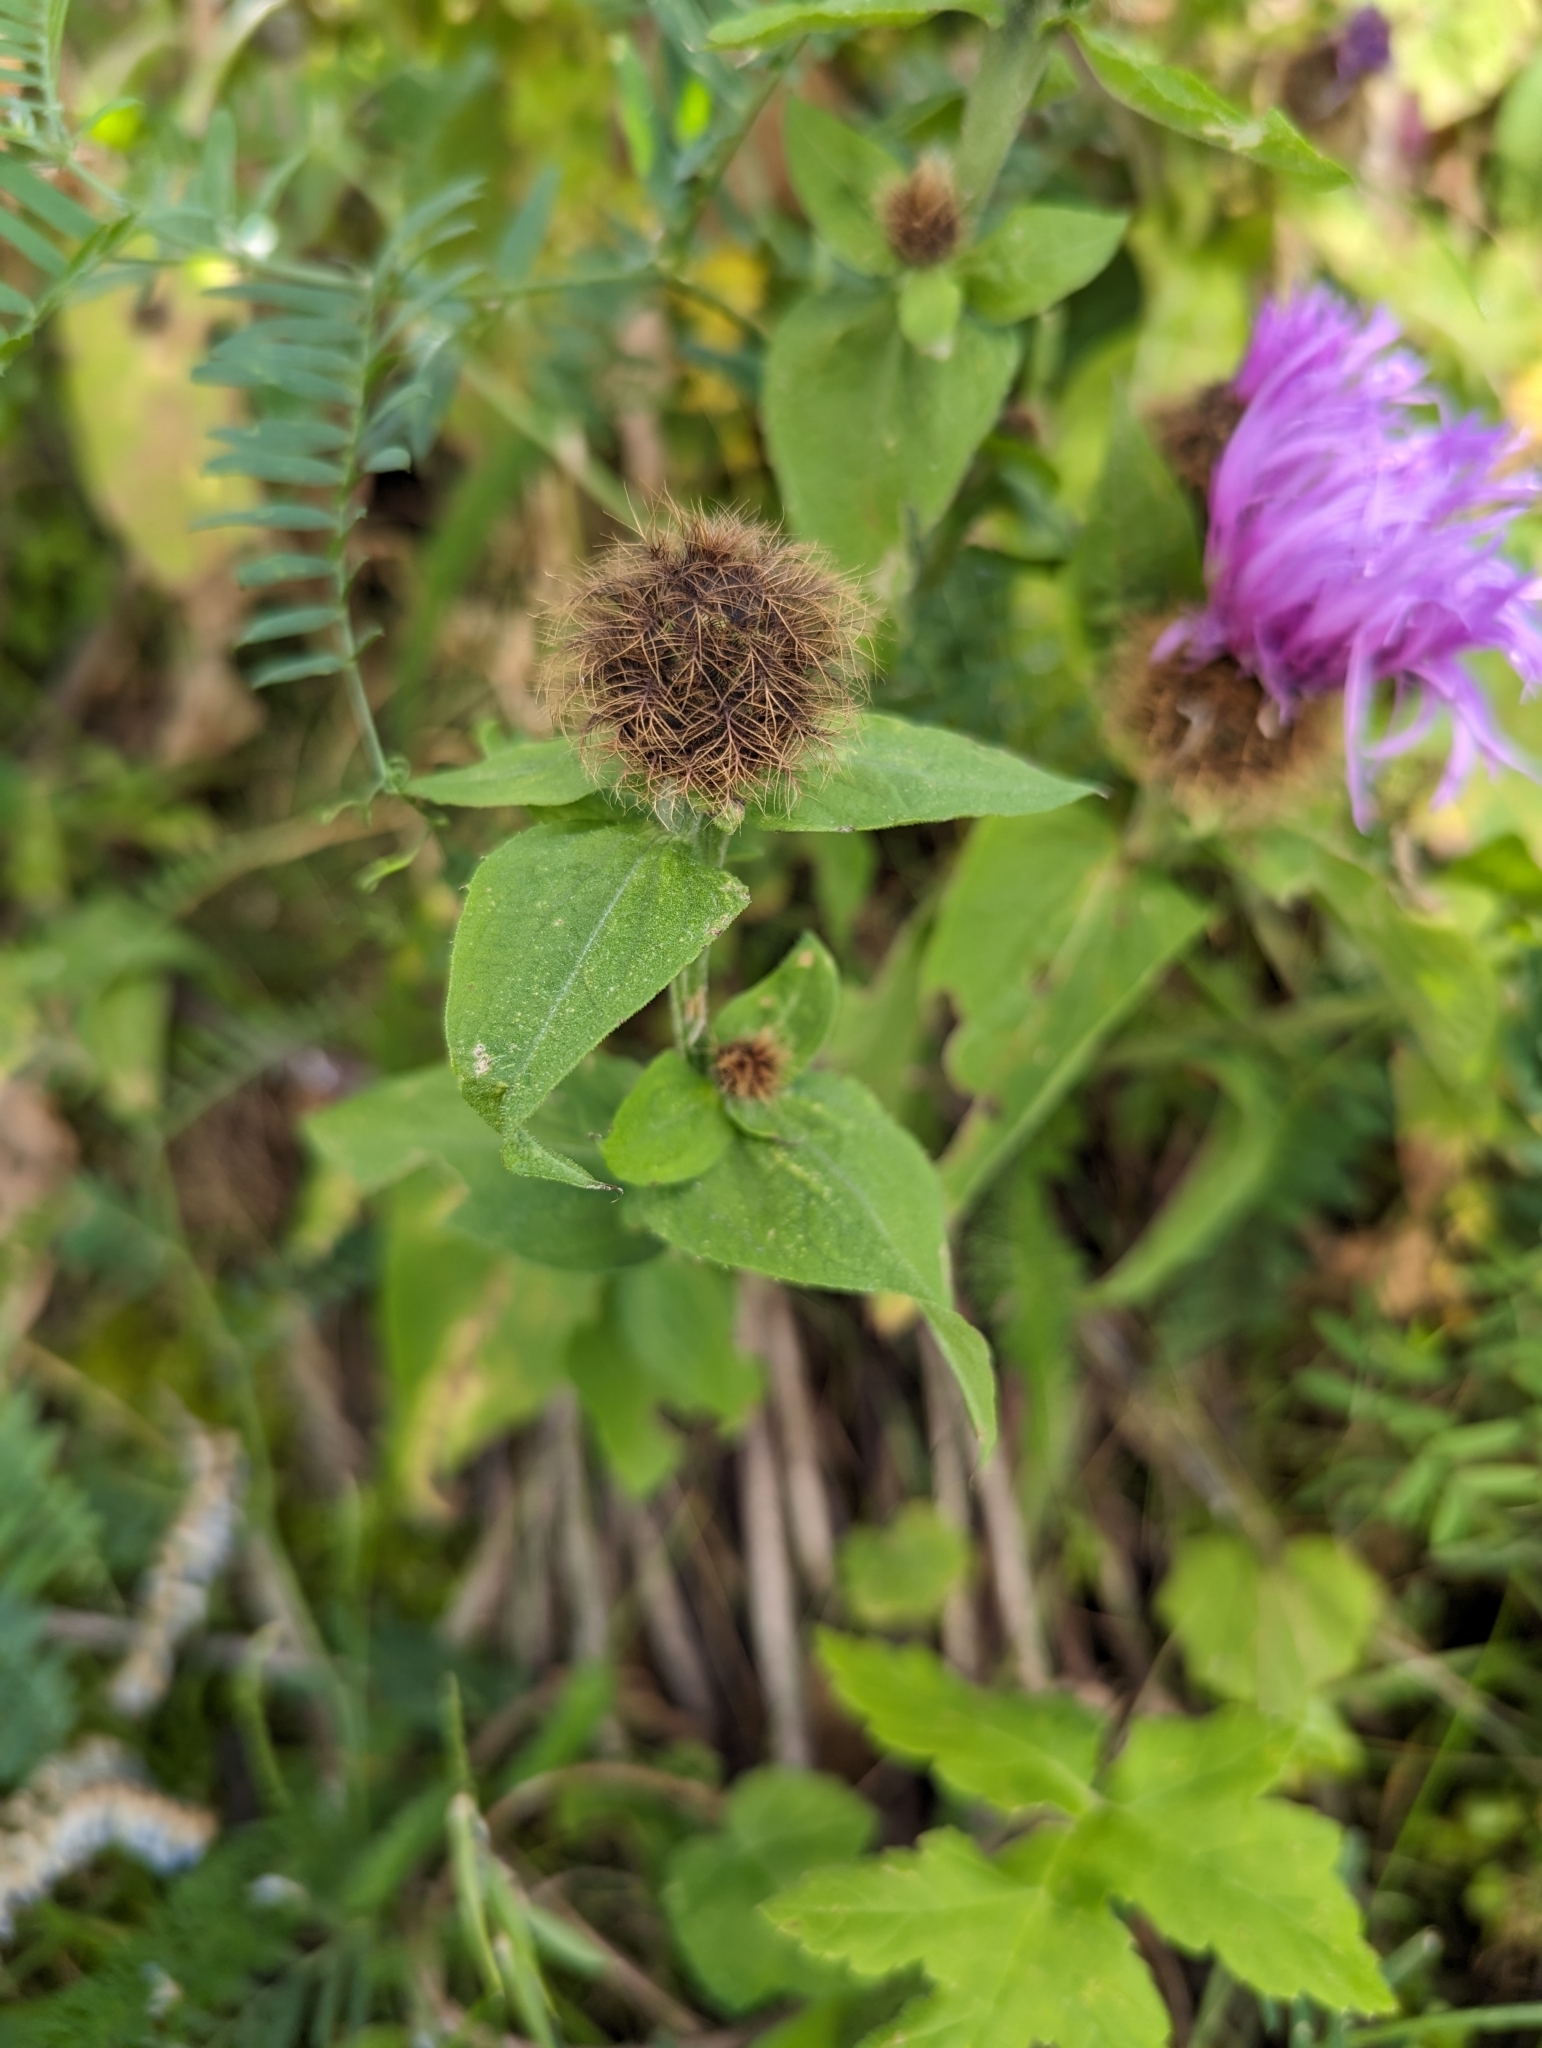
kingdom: Plantae
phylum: Tracheophyta
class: Magnoliopsida
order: Asterales
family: Asteraceae
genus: Centaurea
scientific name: Centaurea phrygia
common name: Wig knapweed
